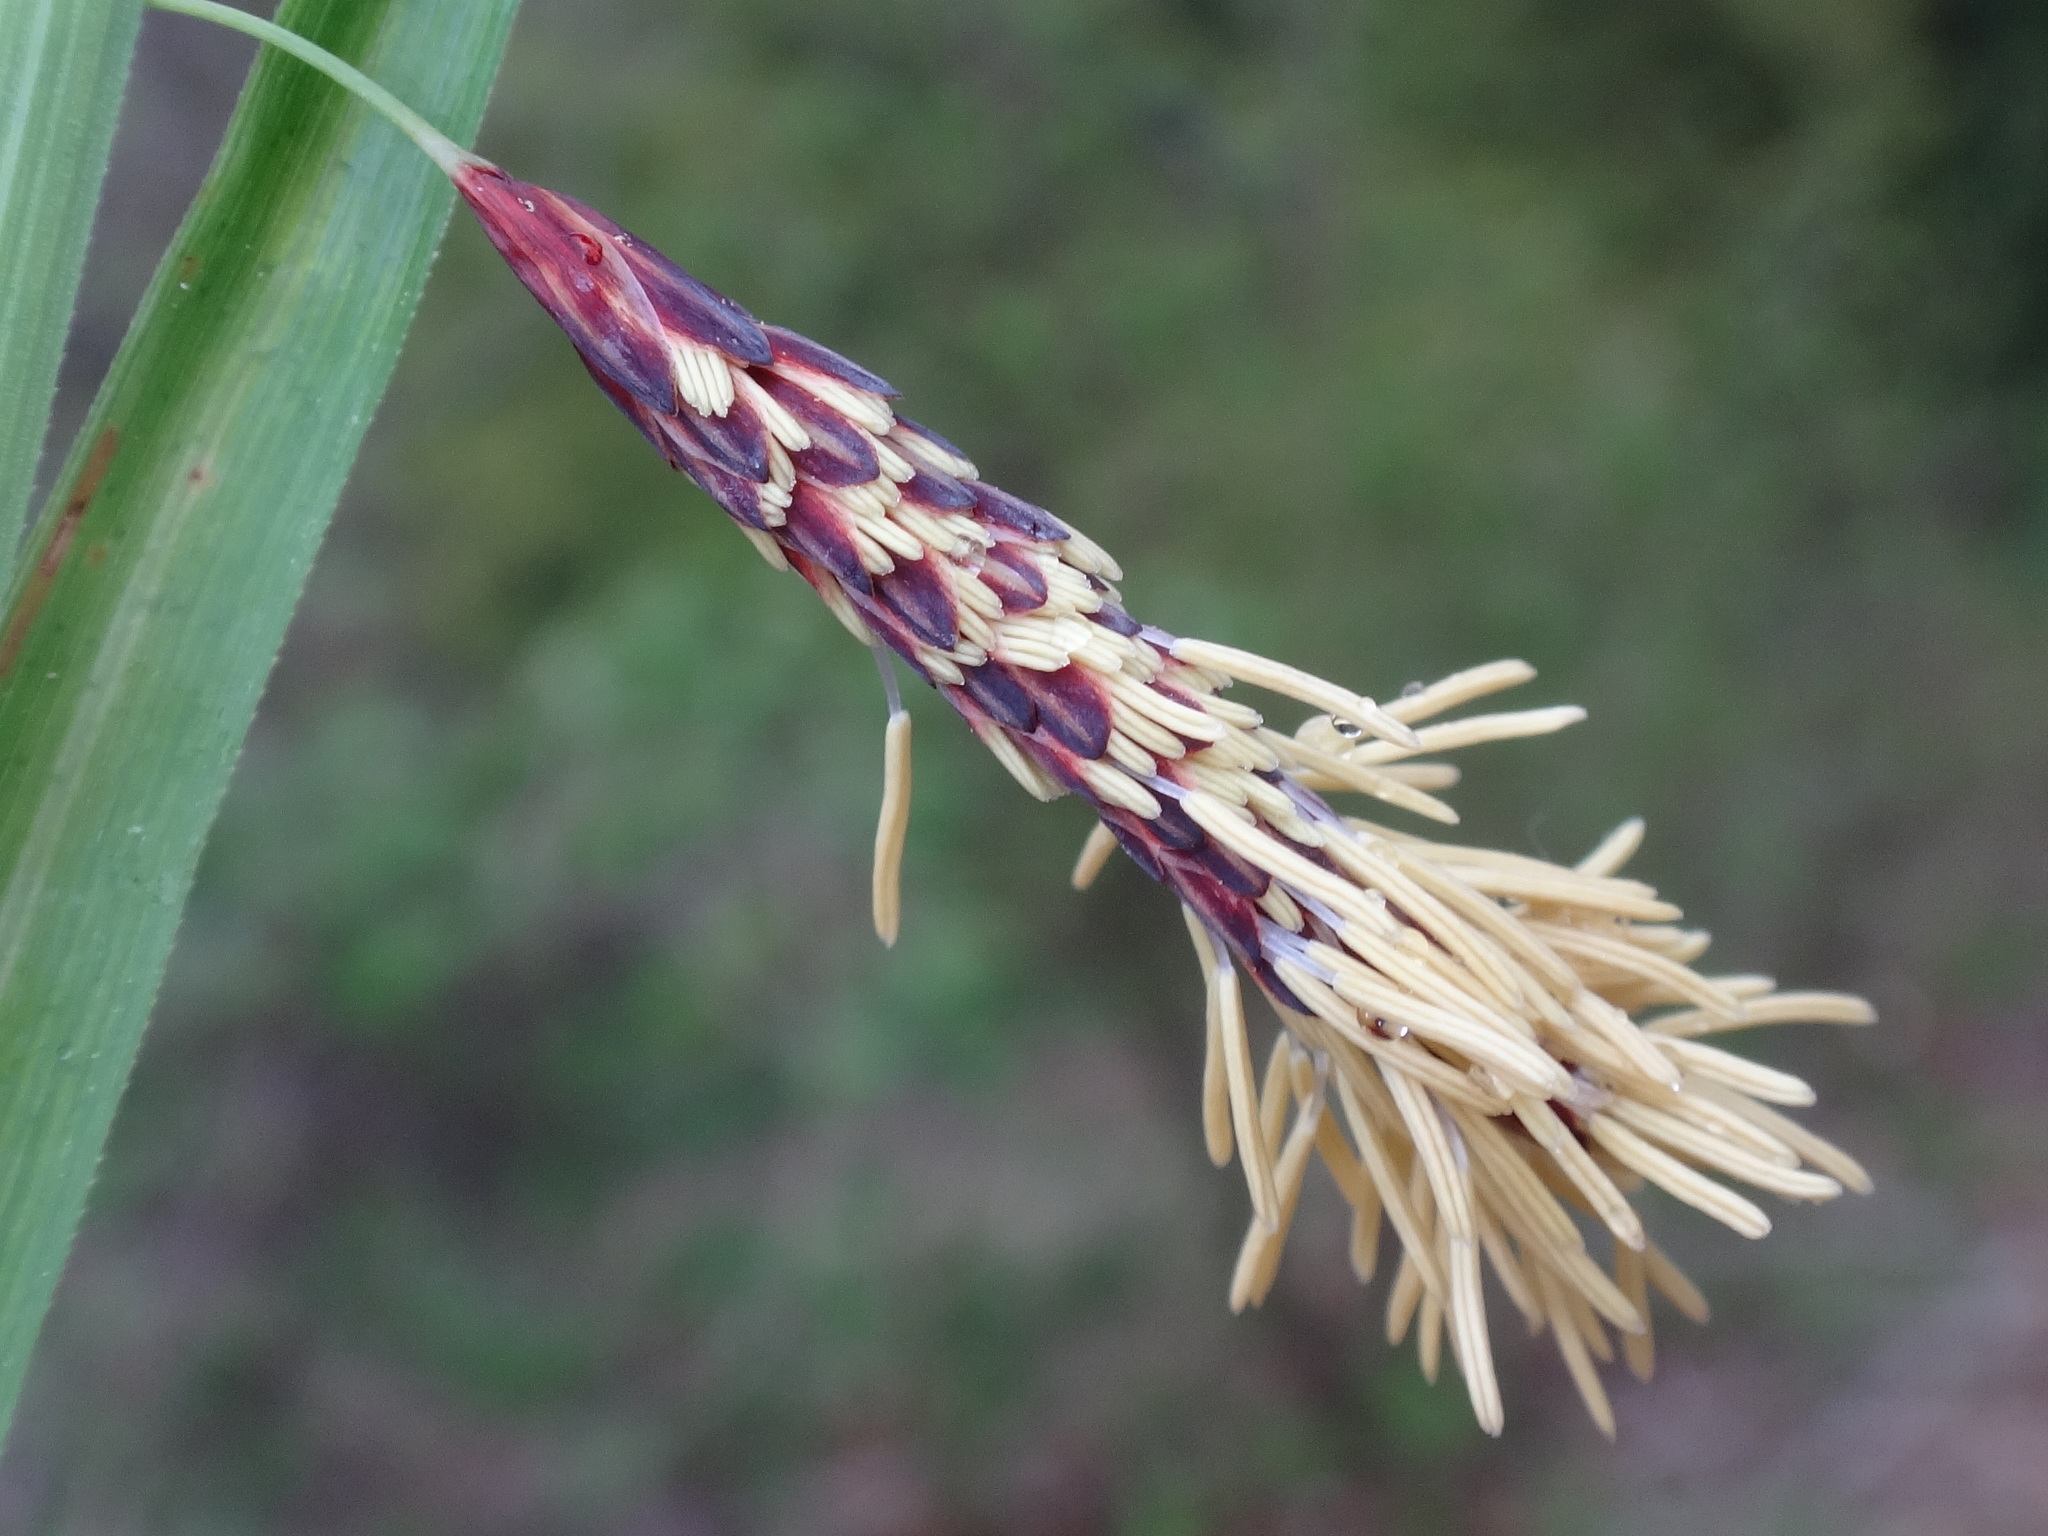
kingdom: Plantae
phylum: Tracheophyta
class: Liliopsida
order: Poales
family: Cyperaceae
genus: Carex
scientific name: Carex flacca
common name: Glaucous sedge
